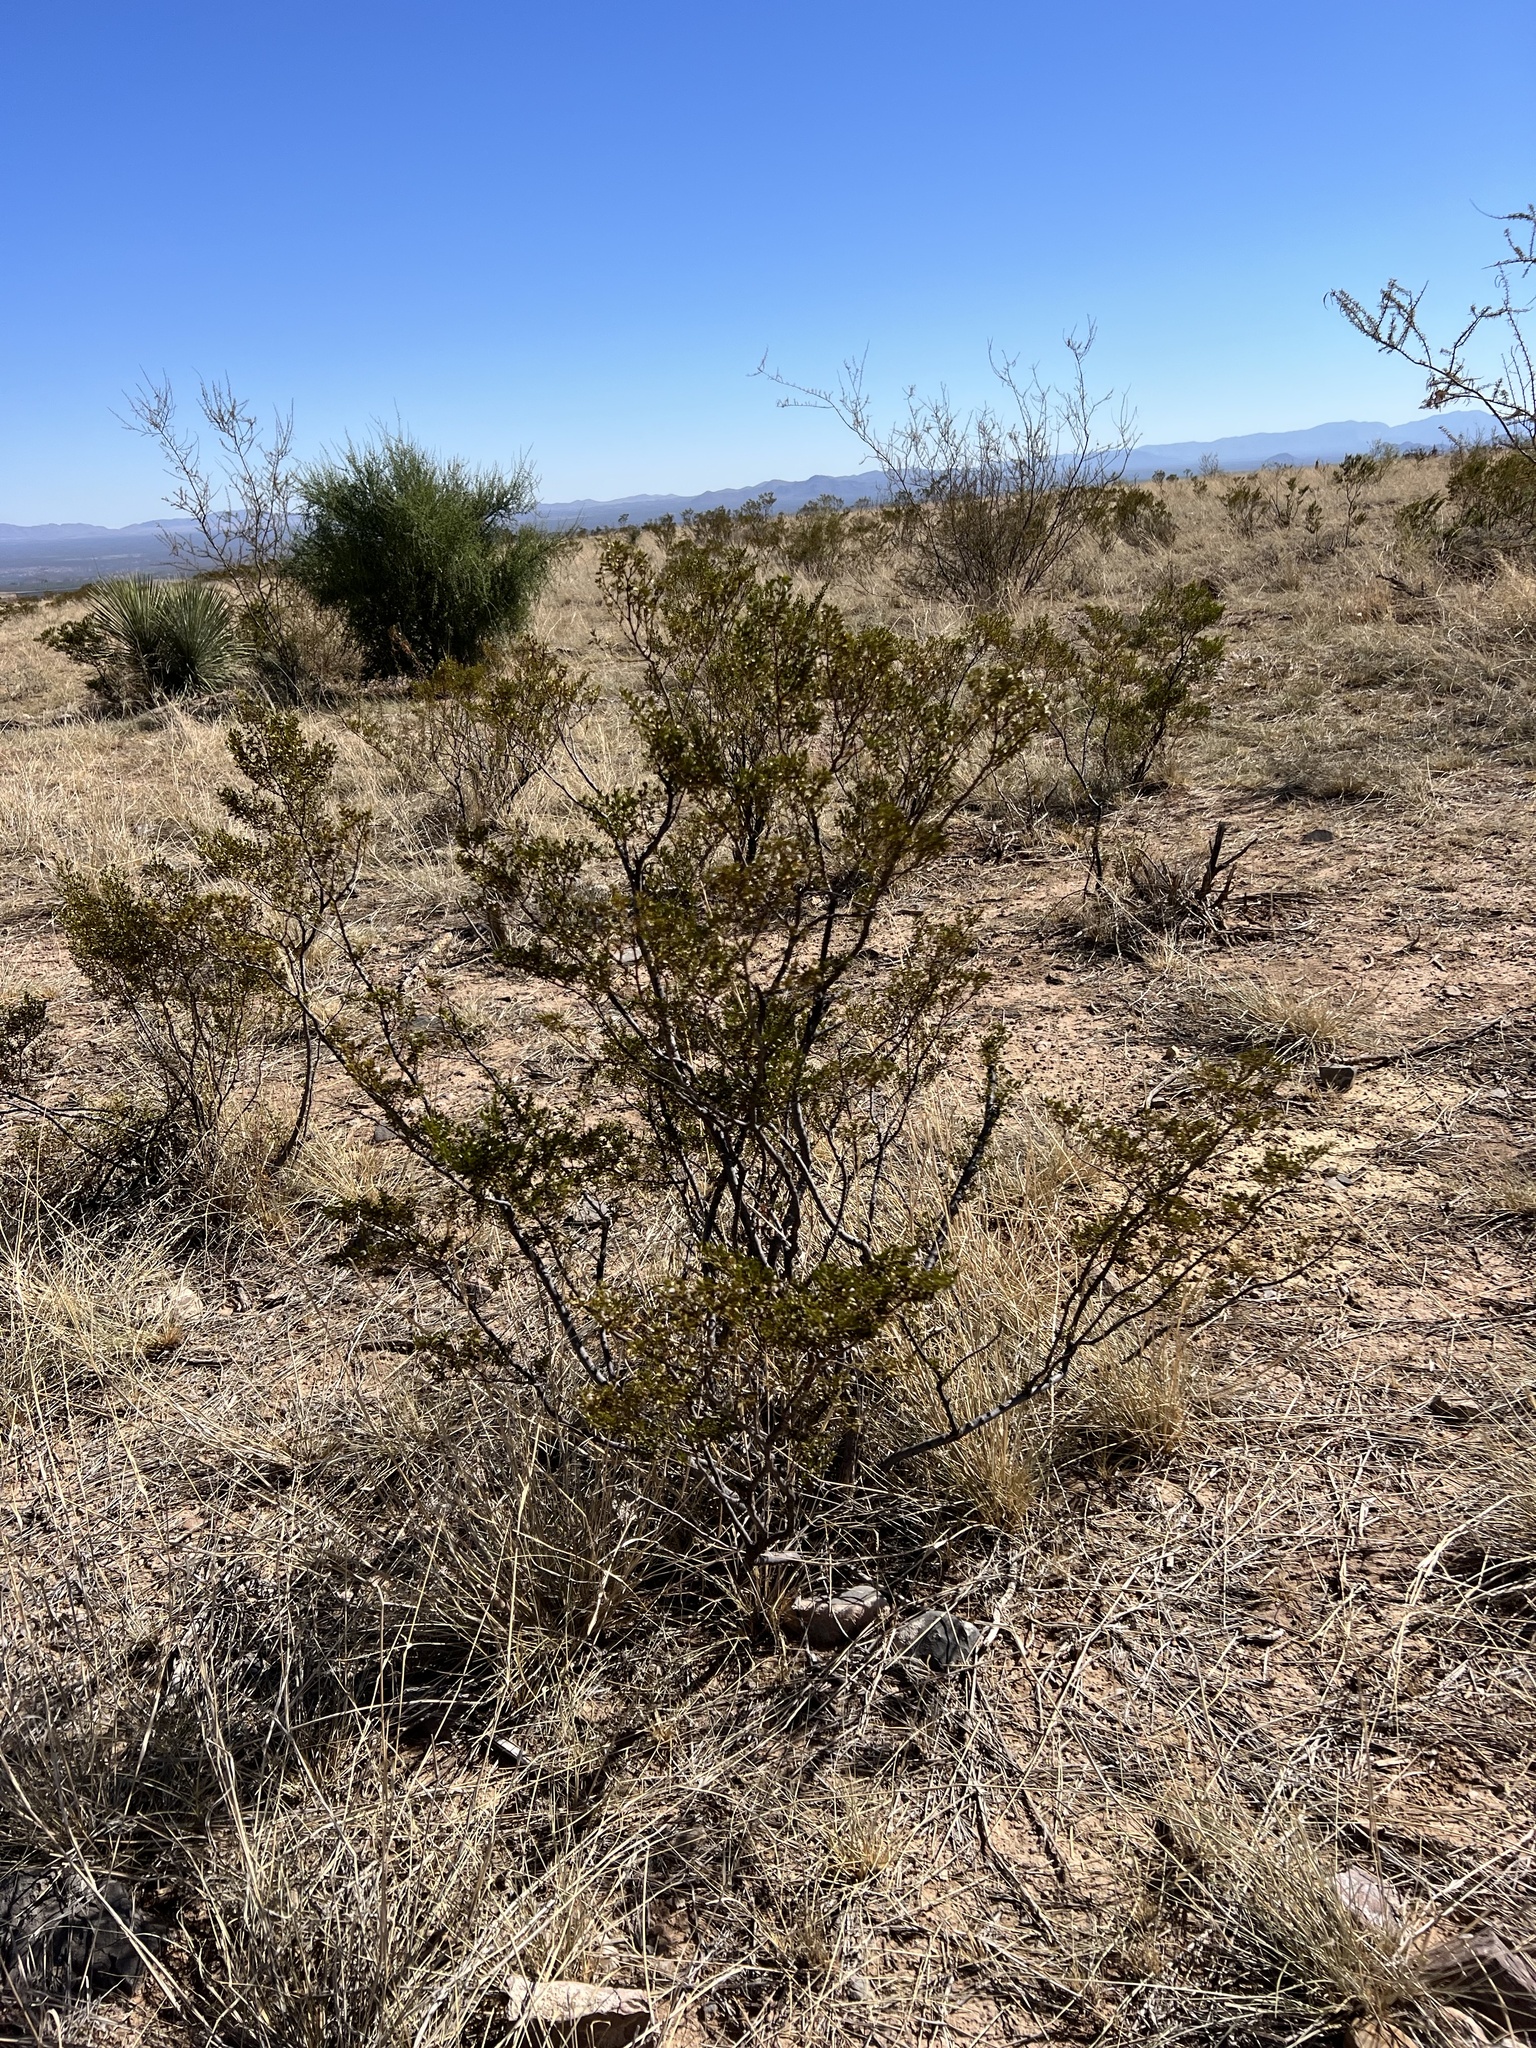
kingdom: Plantae
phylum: Tracheophyta
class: Magnoliopsida
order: Zygophyllales
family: Zygophyllaceae
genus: Larrea
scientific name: Larrea tridentata
